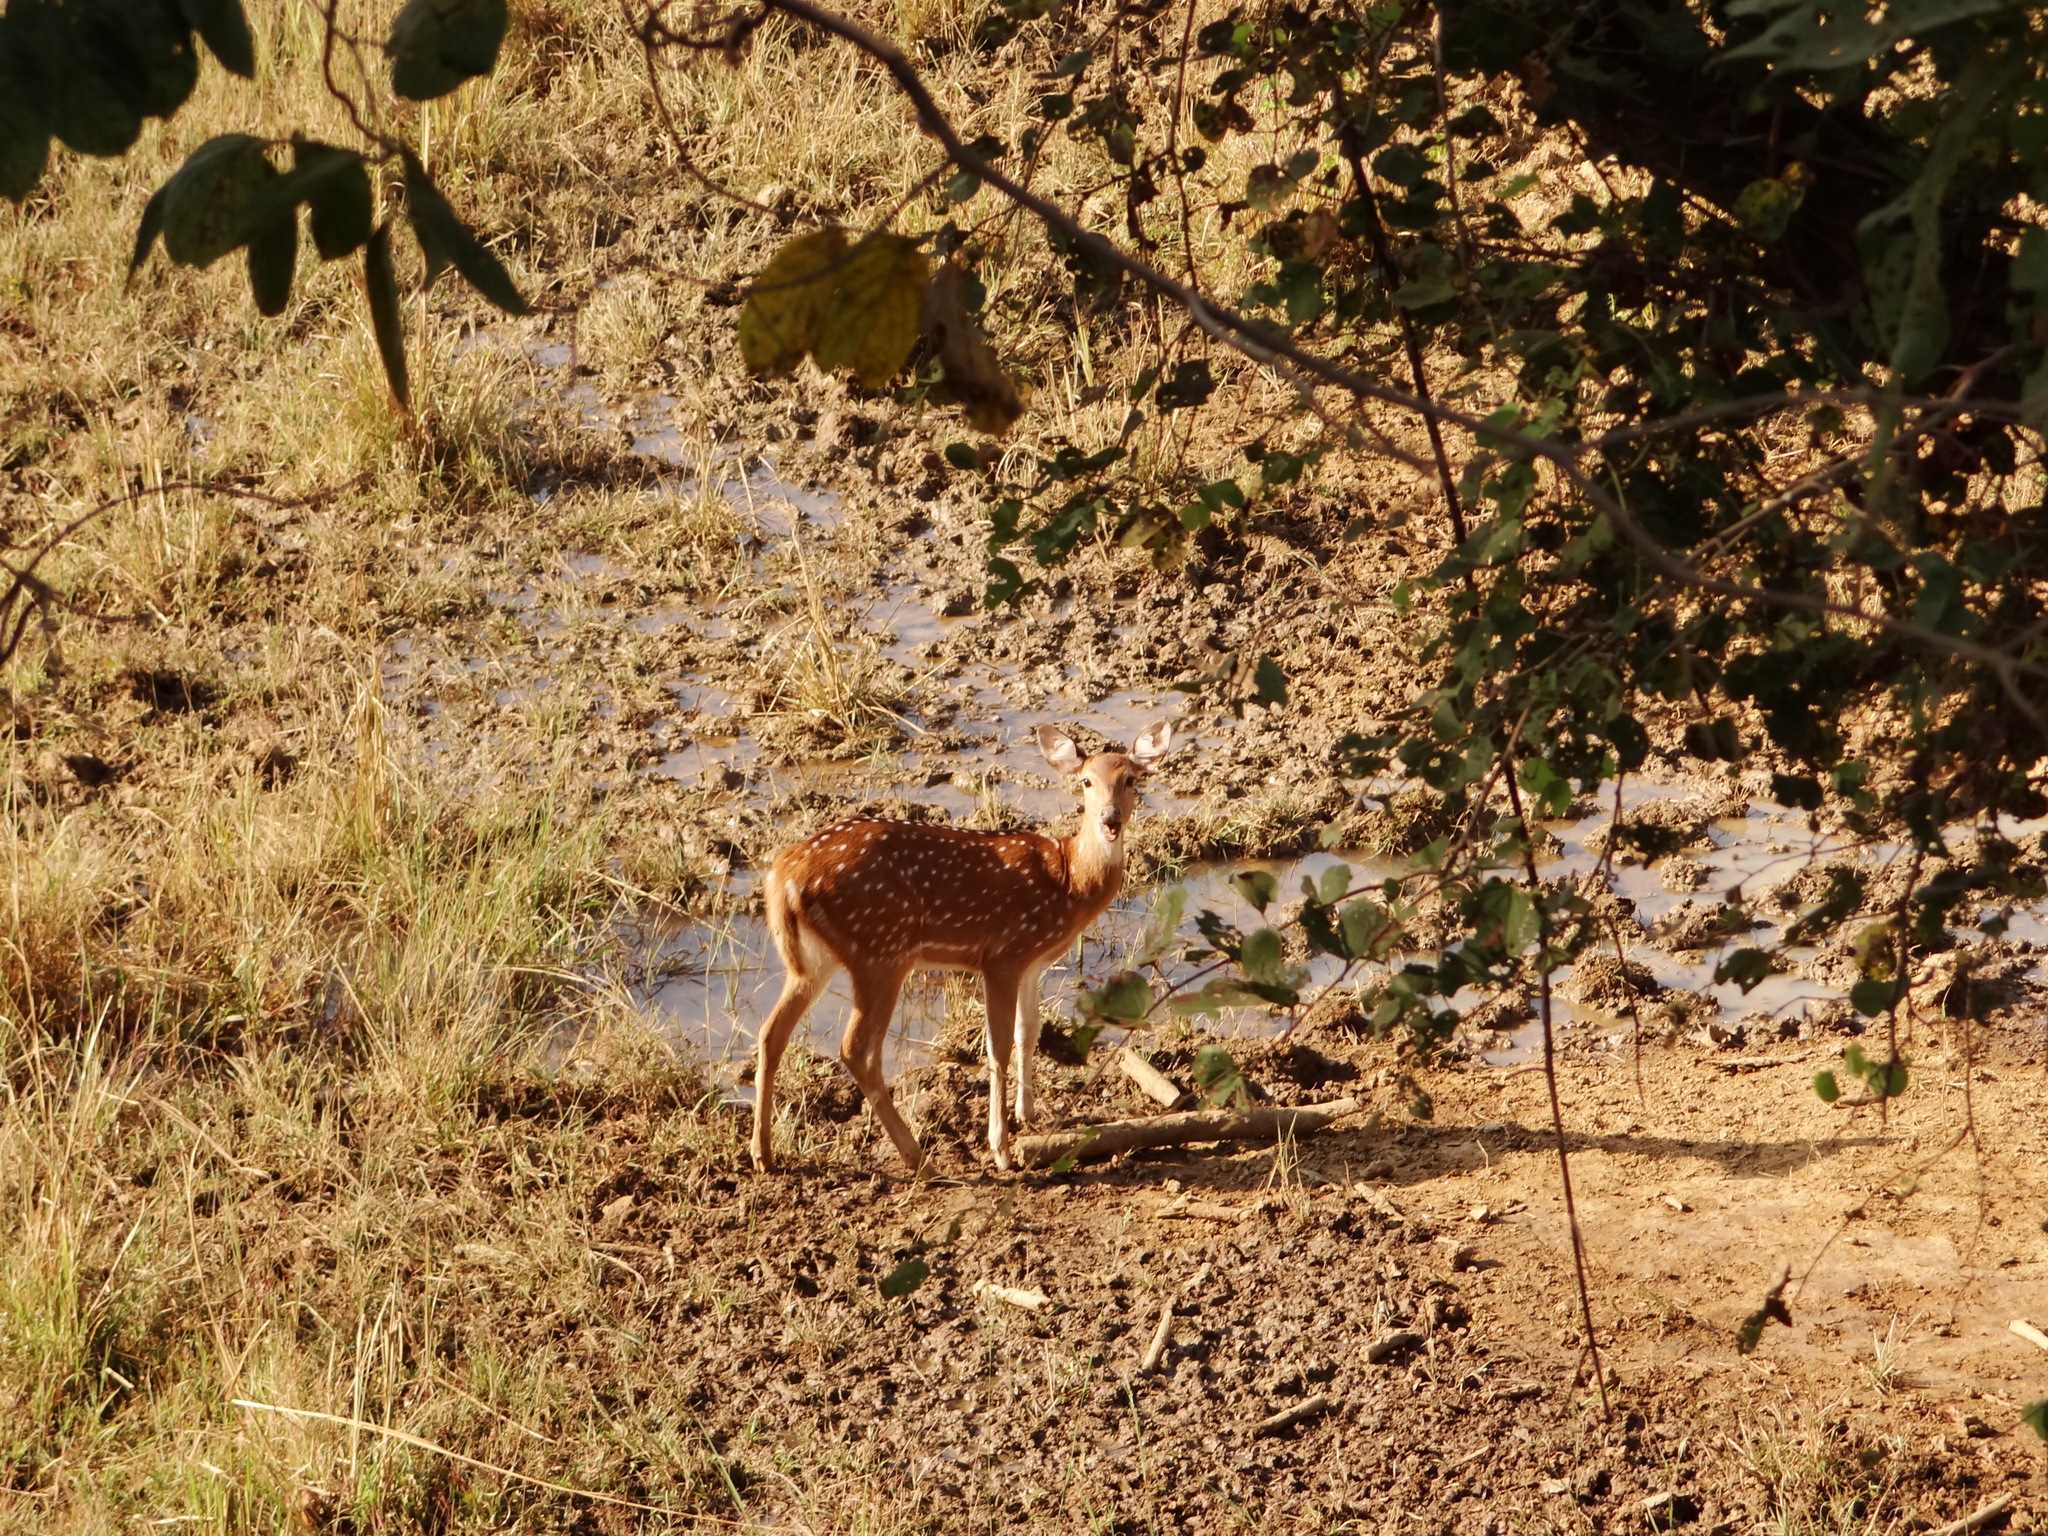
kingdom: Animalia
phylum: Chordata
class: Mammalia
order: Artiodactyla
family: Cervidae
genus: Axis
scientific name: Axis axis
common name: Chital
